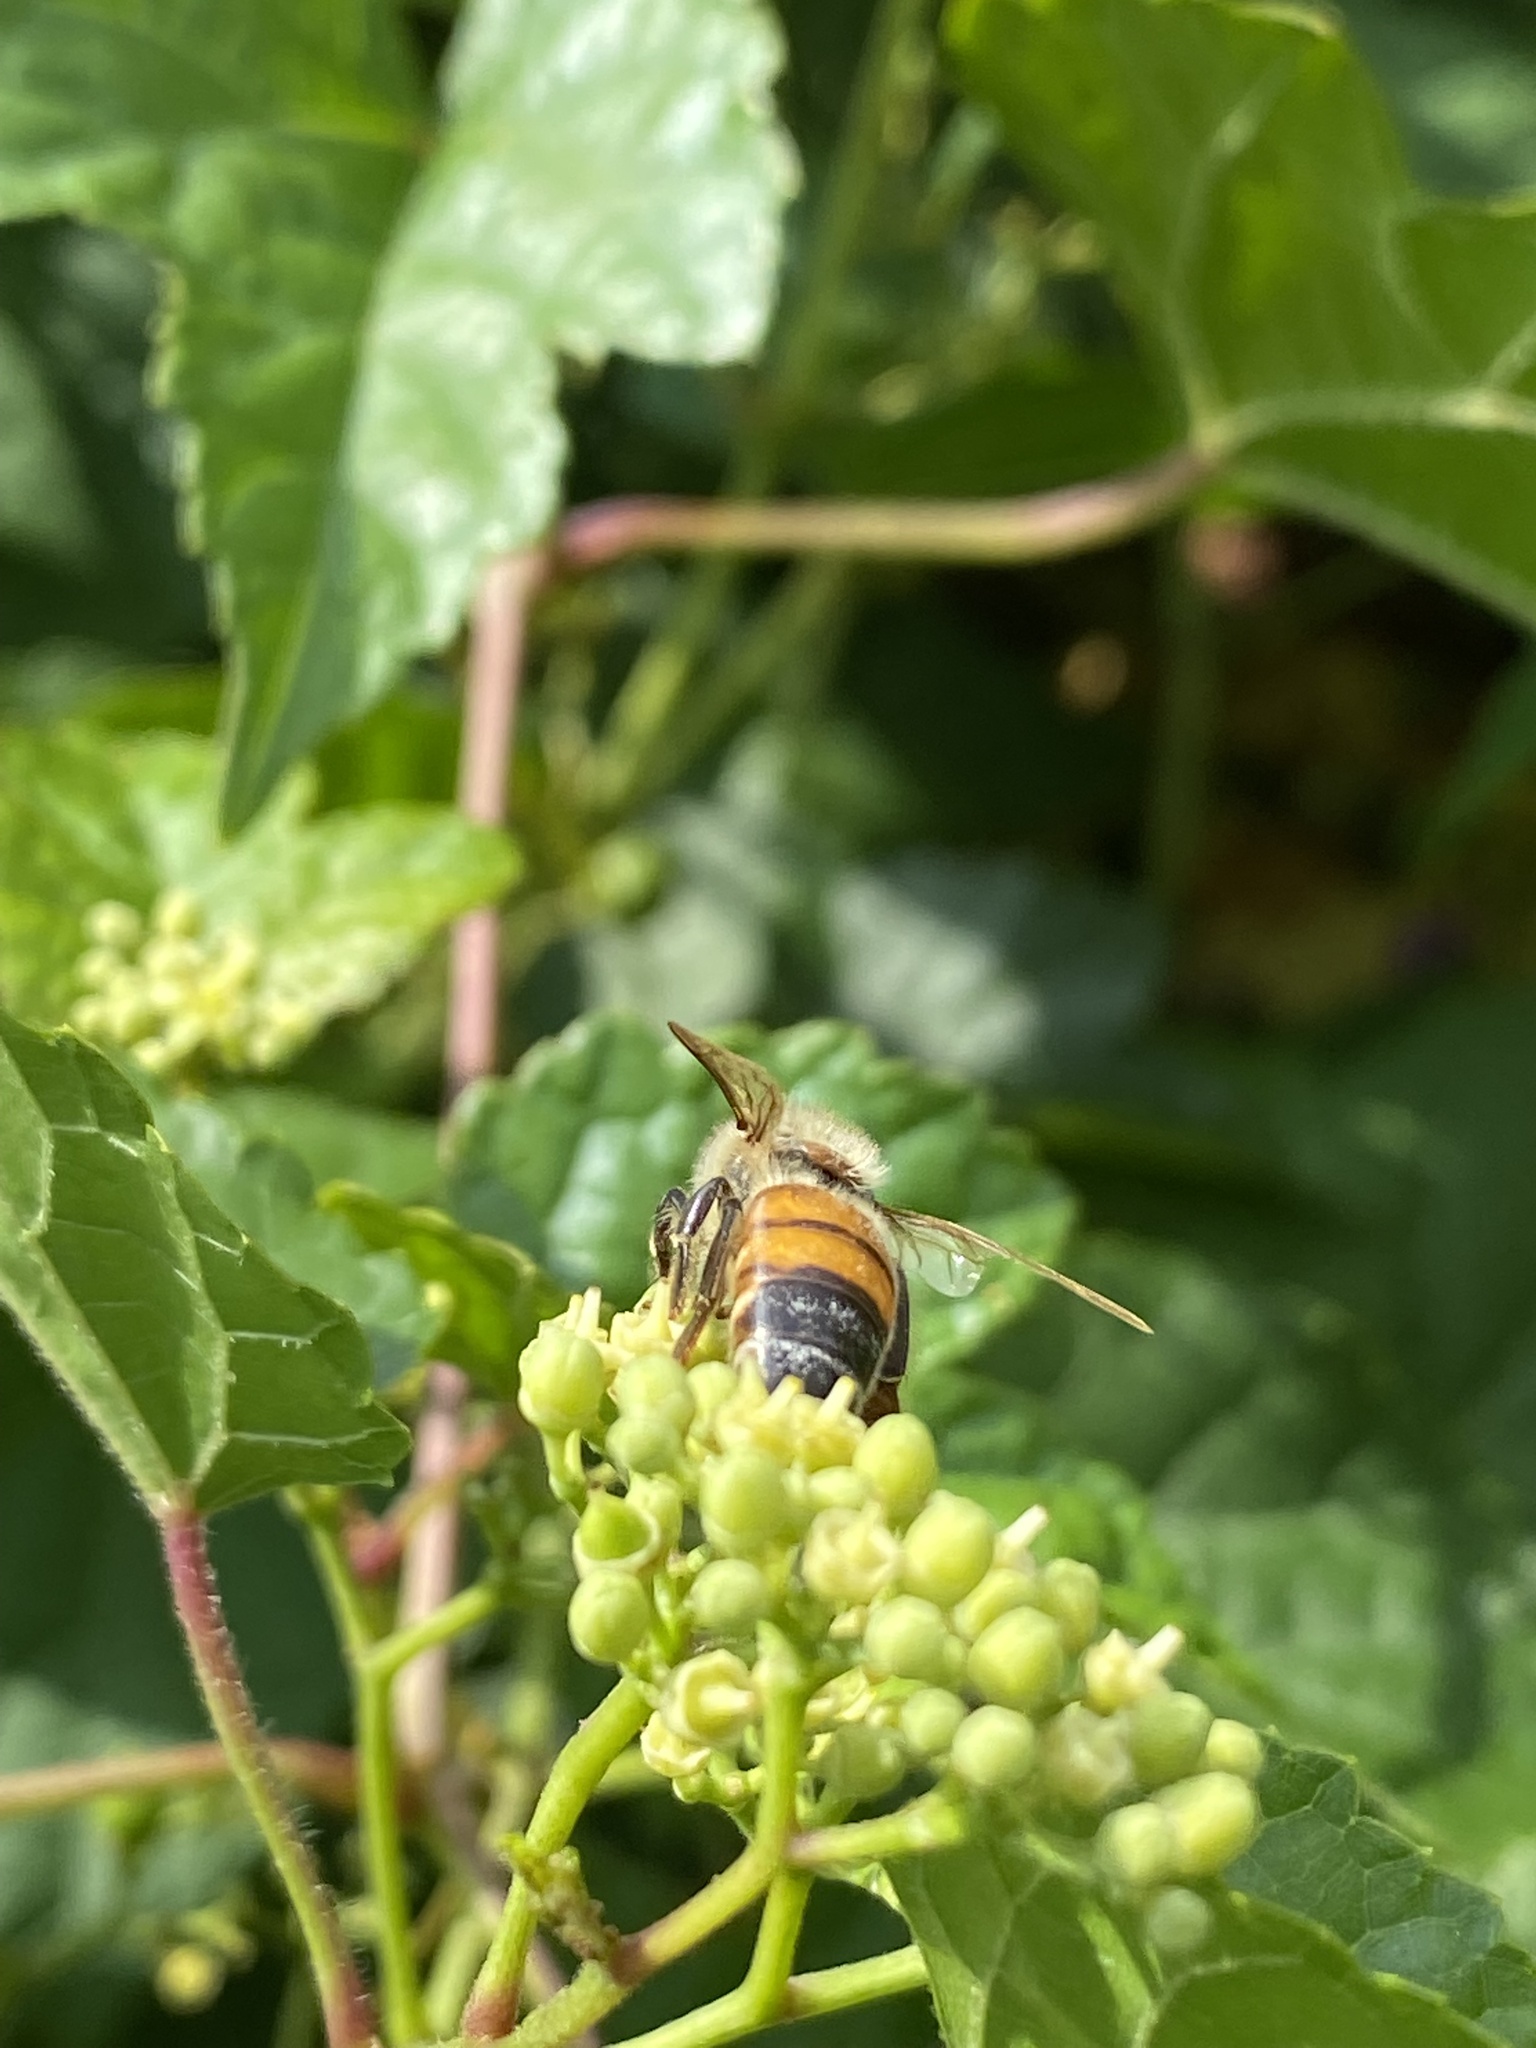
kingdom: Animalia
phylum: Arthropoda
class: Insecta
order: Hymenoptera
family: Apidae
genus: Apis
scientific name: Apis mellifera
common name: Honey bee
